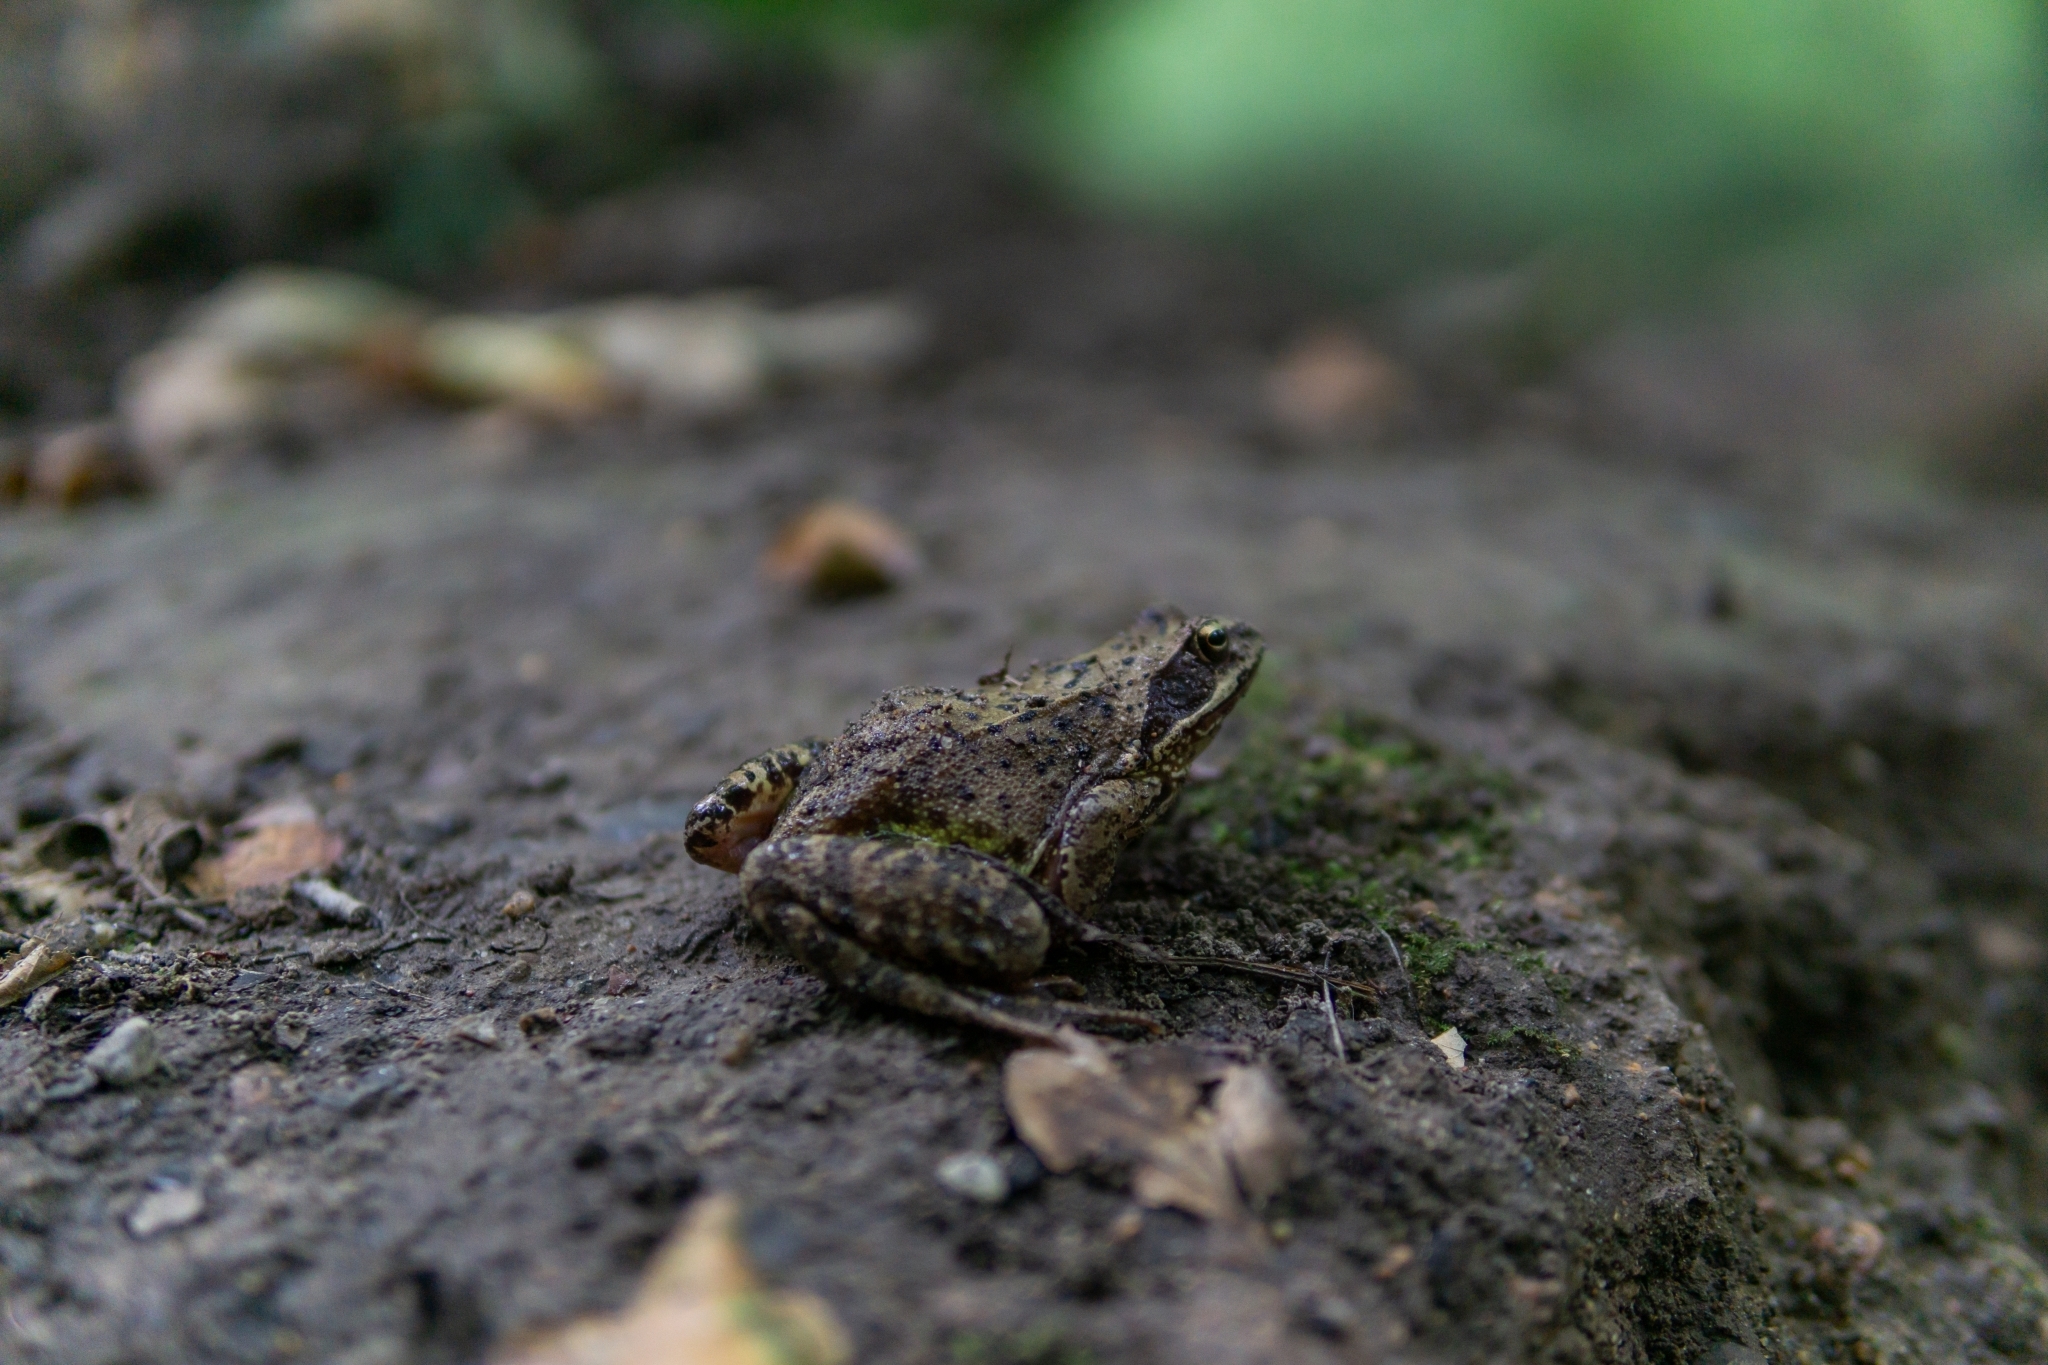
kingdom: Animalia
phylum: Chordata
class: Amphibia
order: Anura
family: Ranidae
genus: Rana
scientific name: Rana temporaria
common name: Common frog
